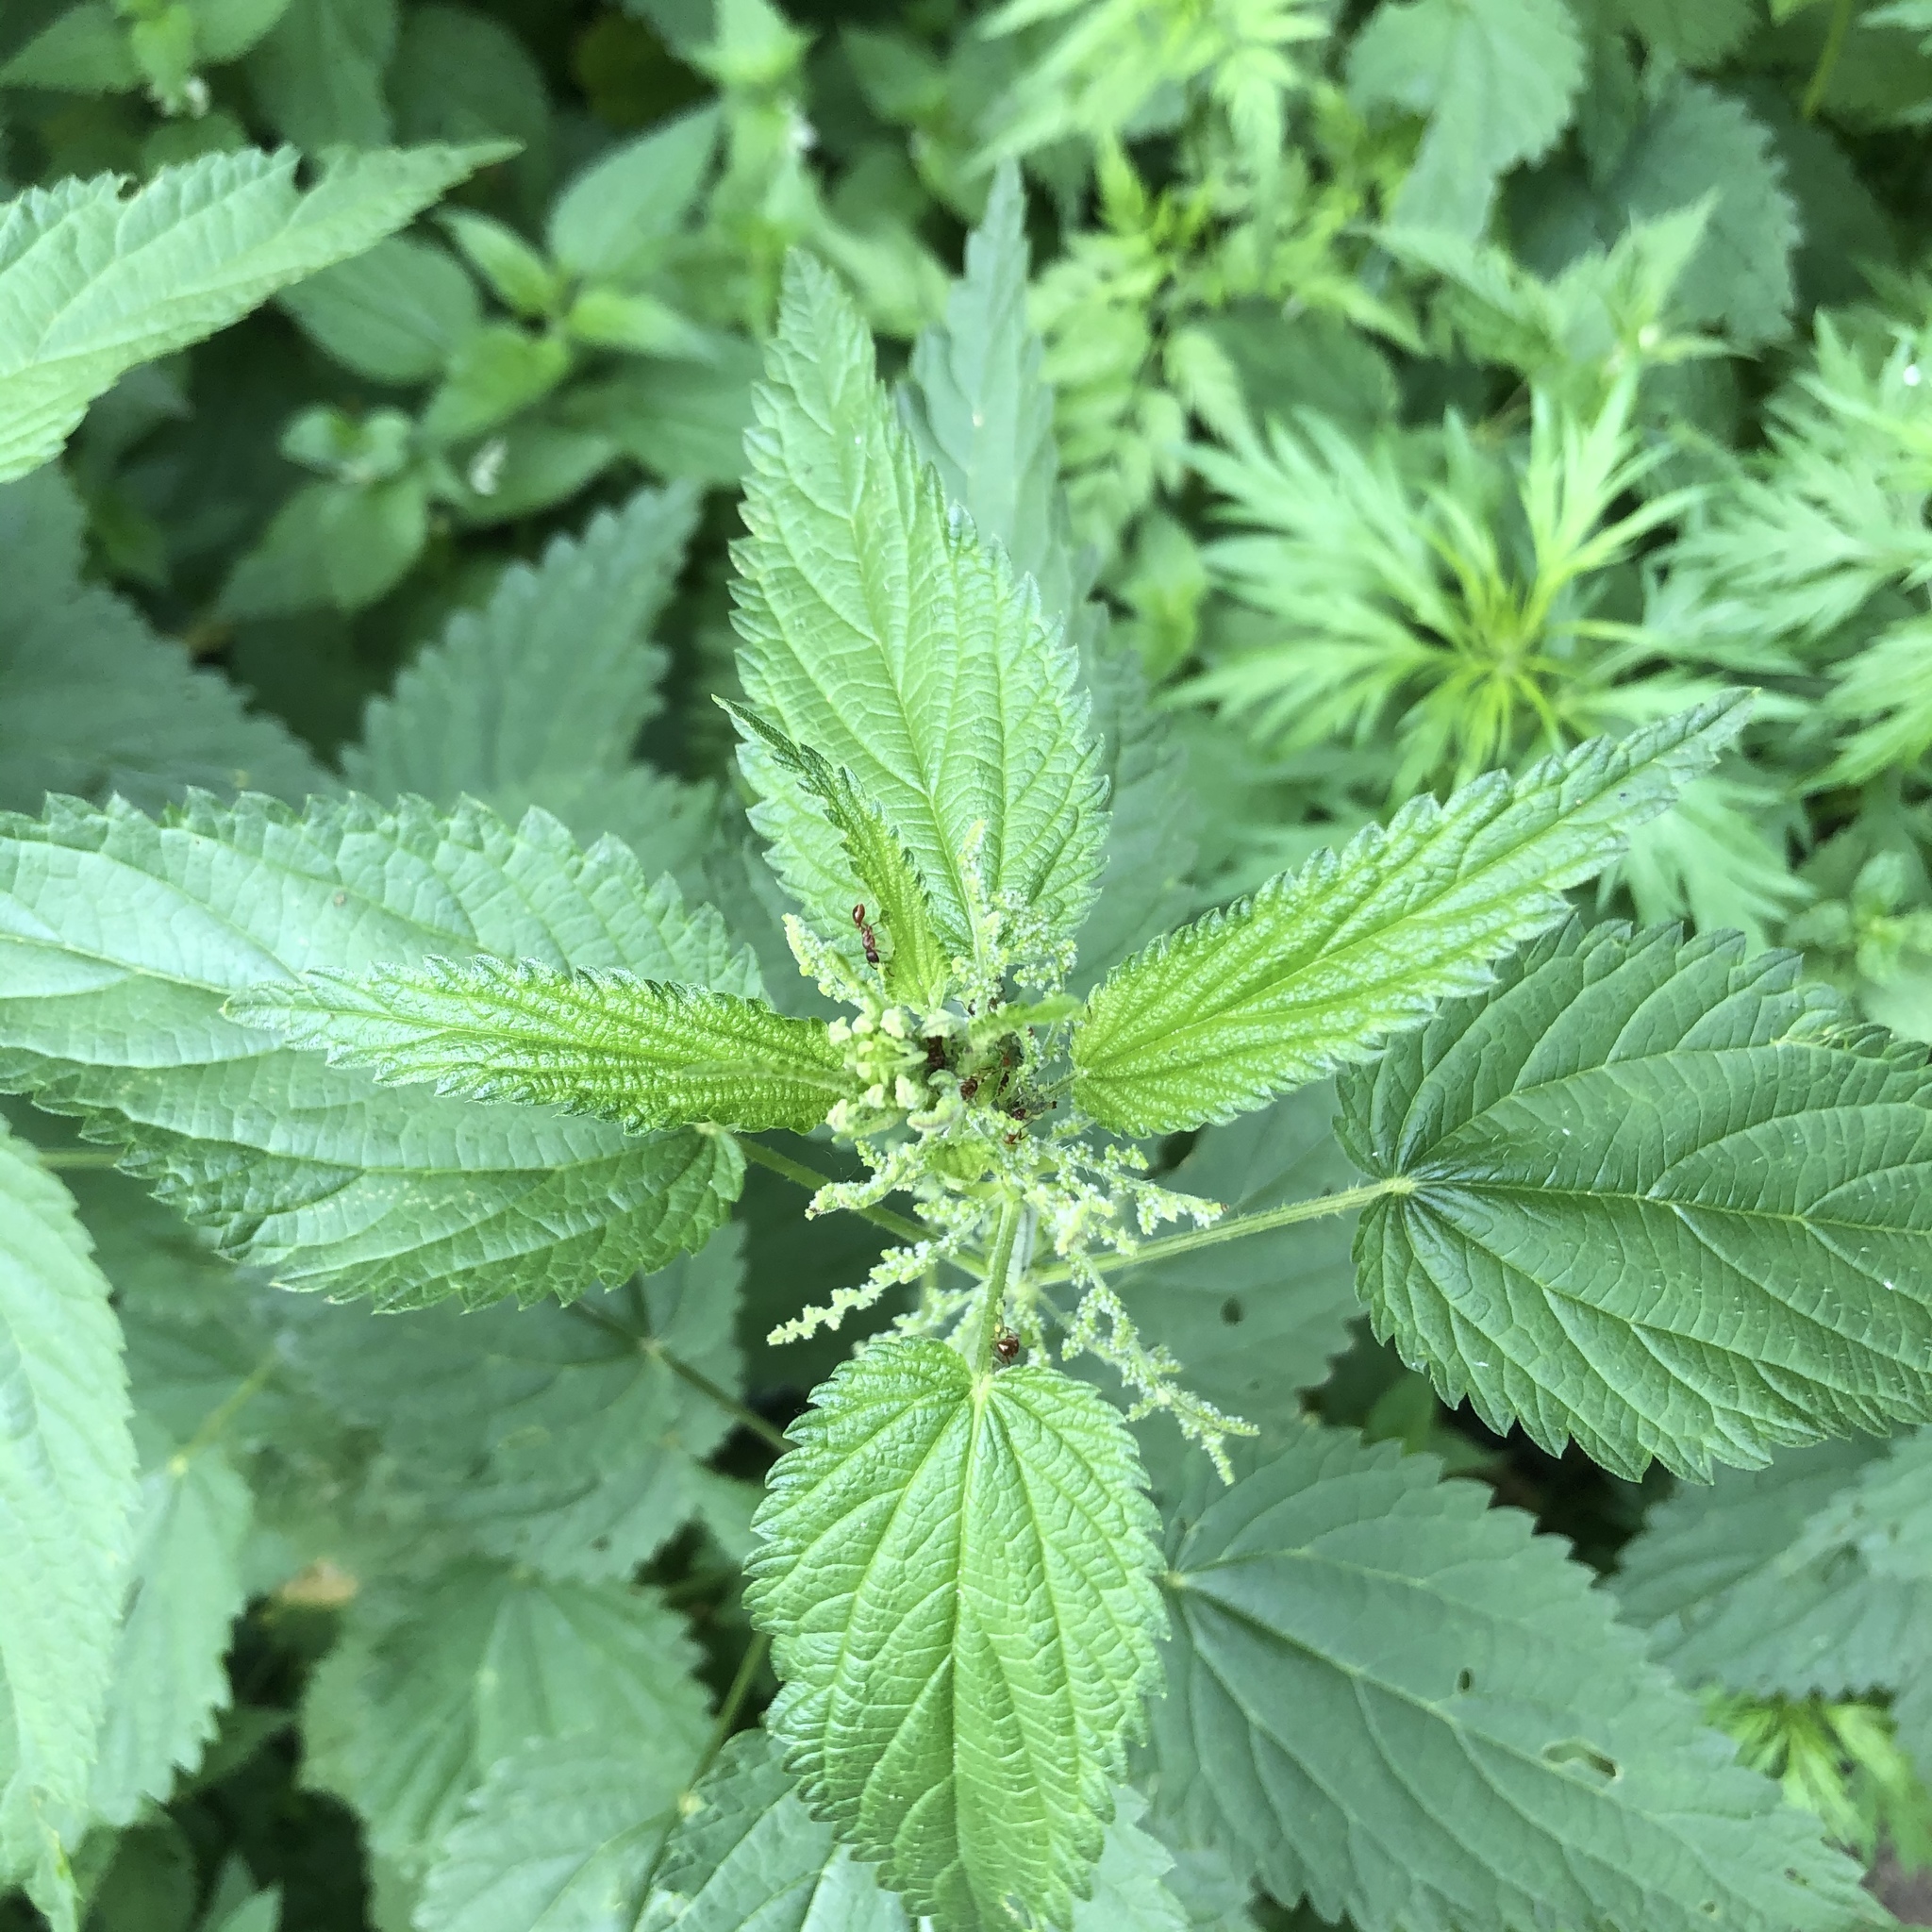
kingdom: Plantae
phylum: Tracheophyta
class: Magnoliopsida
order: Rosales
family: Urticaceae
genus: Urtica
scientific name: Urtica dioica
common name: Common nettle
